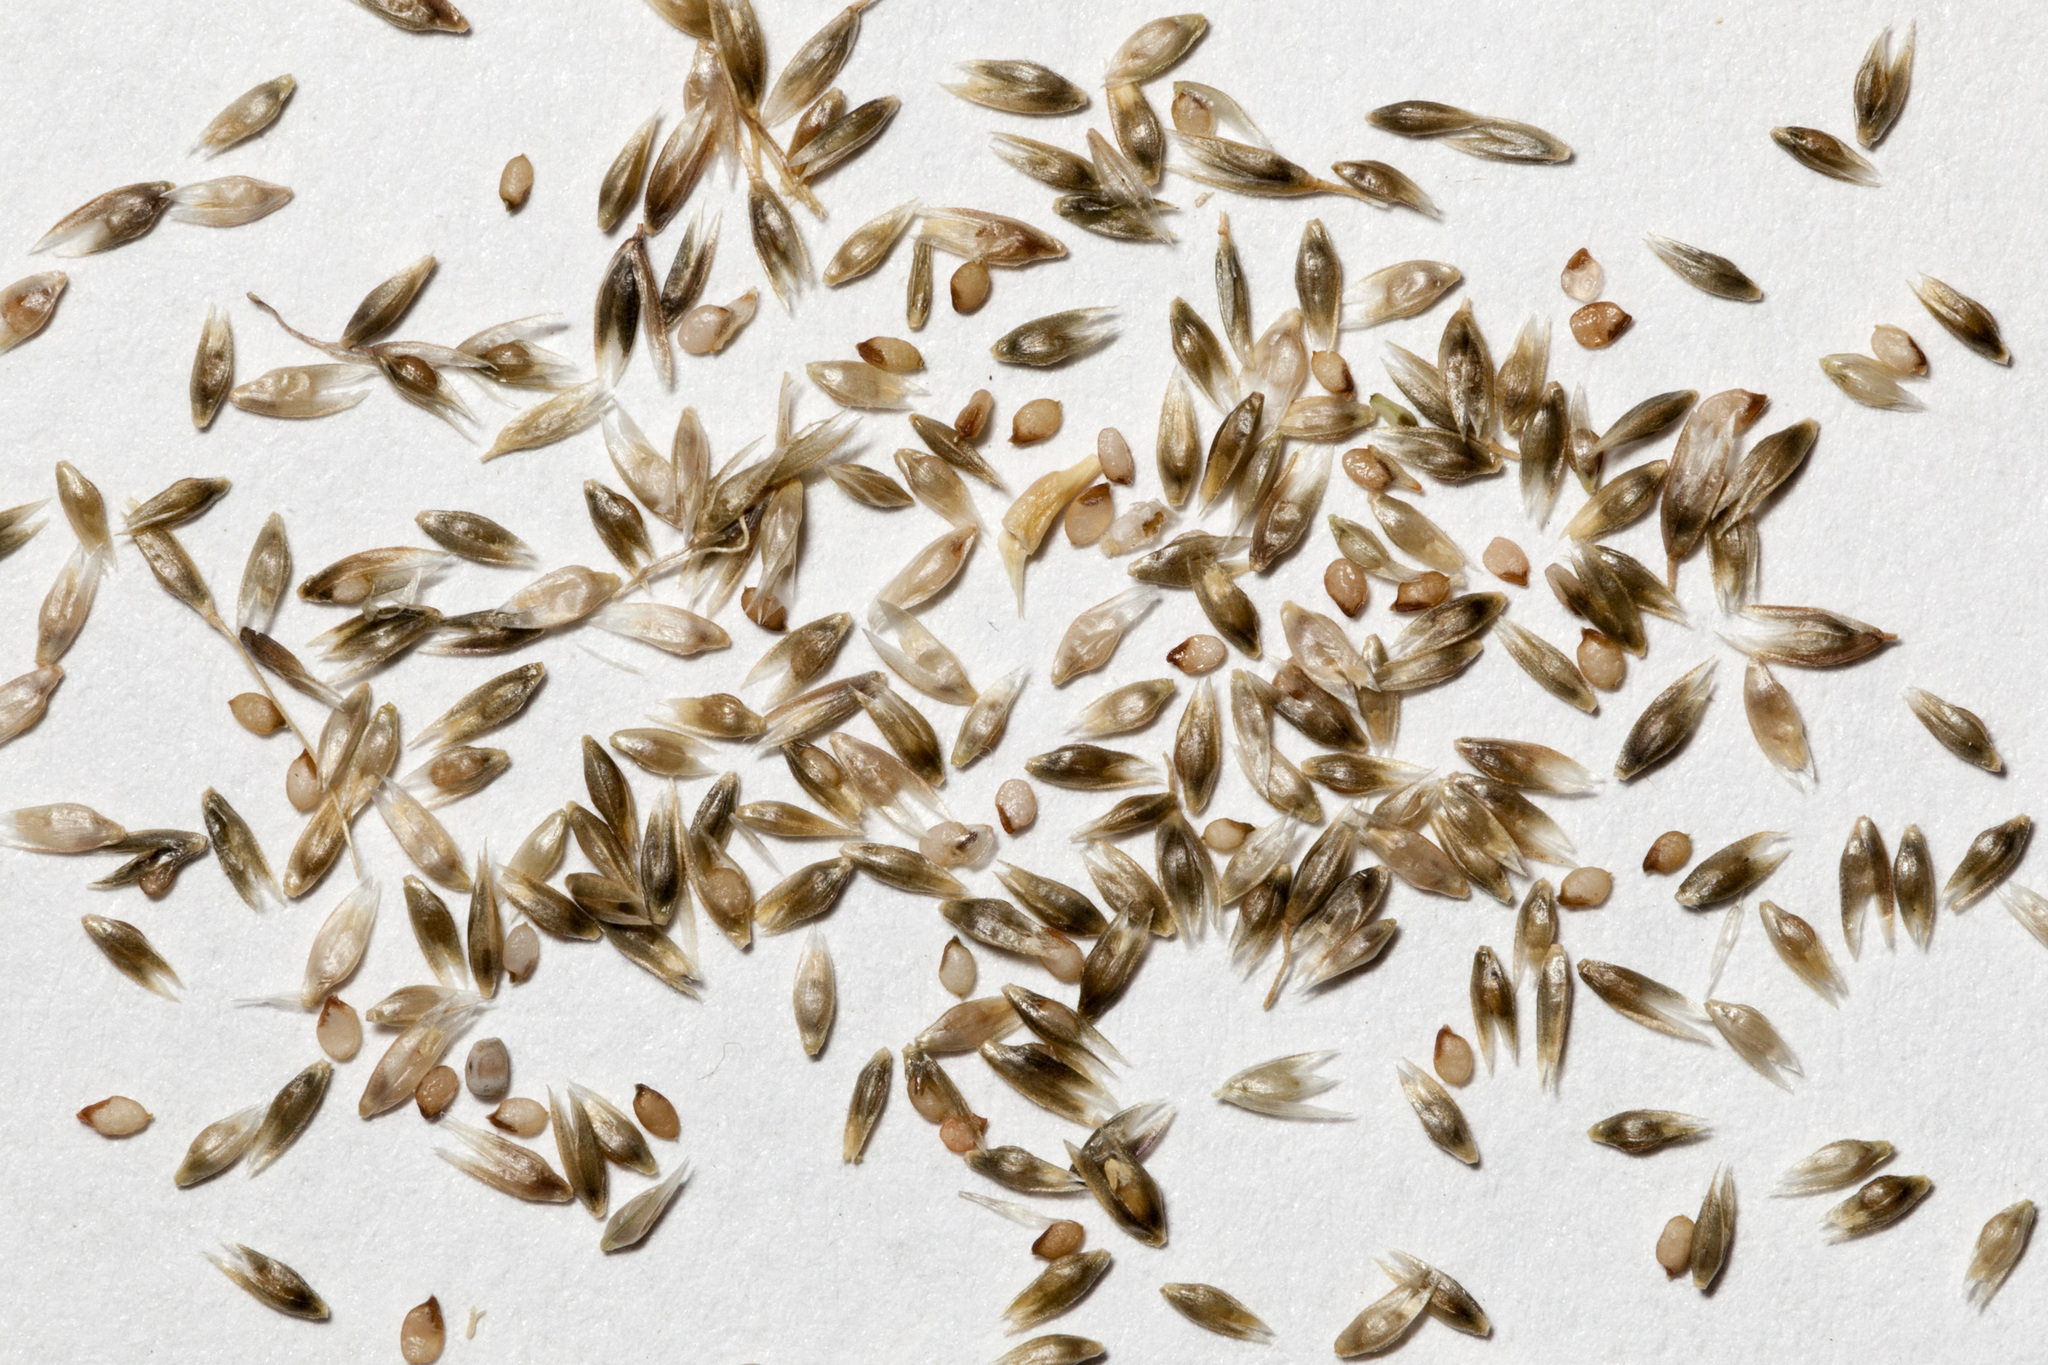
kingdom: Plantae
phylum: Tracheophyta
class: Liliopsida
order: Poales
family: Poaceae
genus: Sporobolus
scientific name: Sporobolus flexuosus
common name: Mesa dropseed
